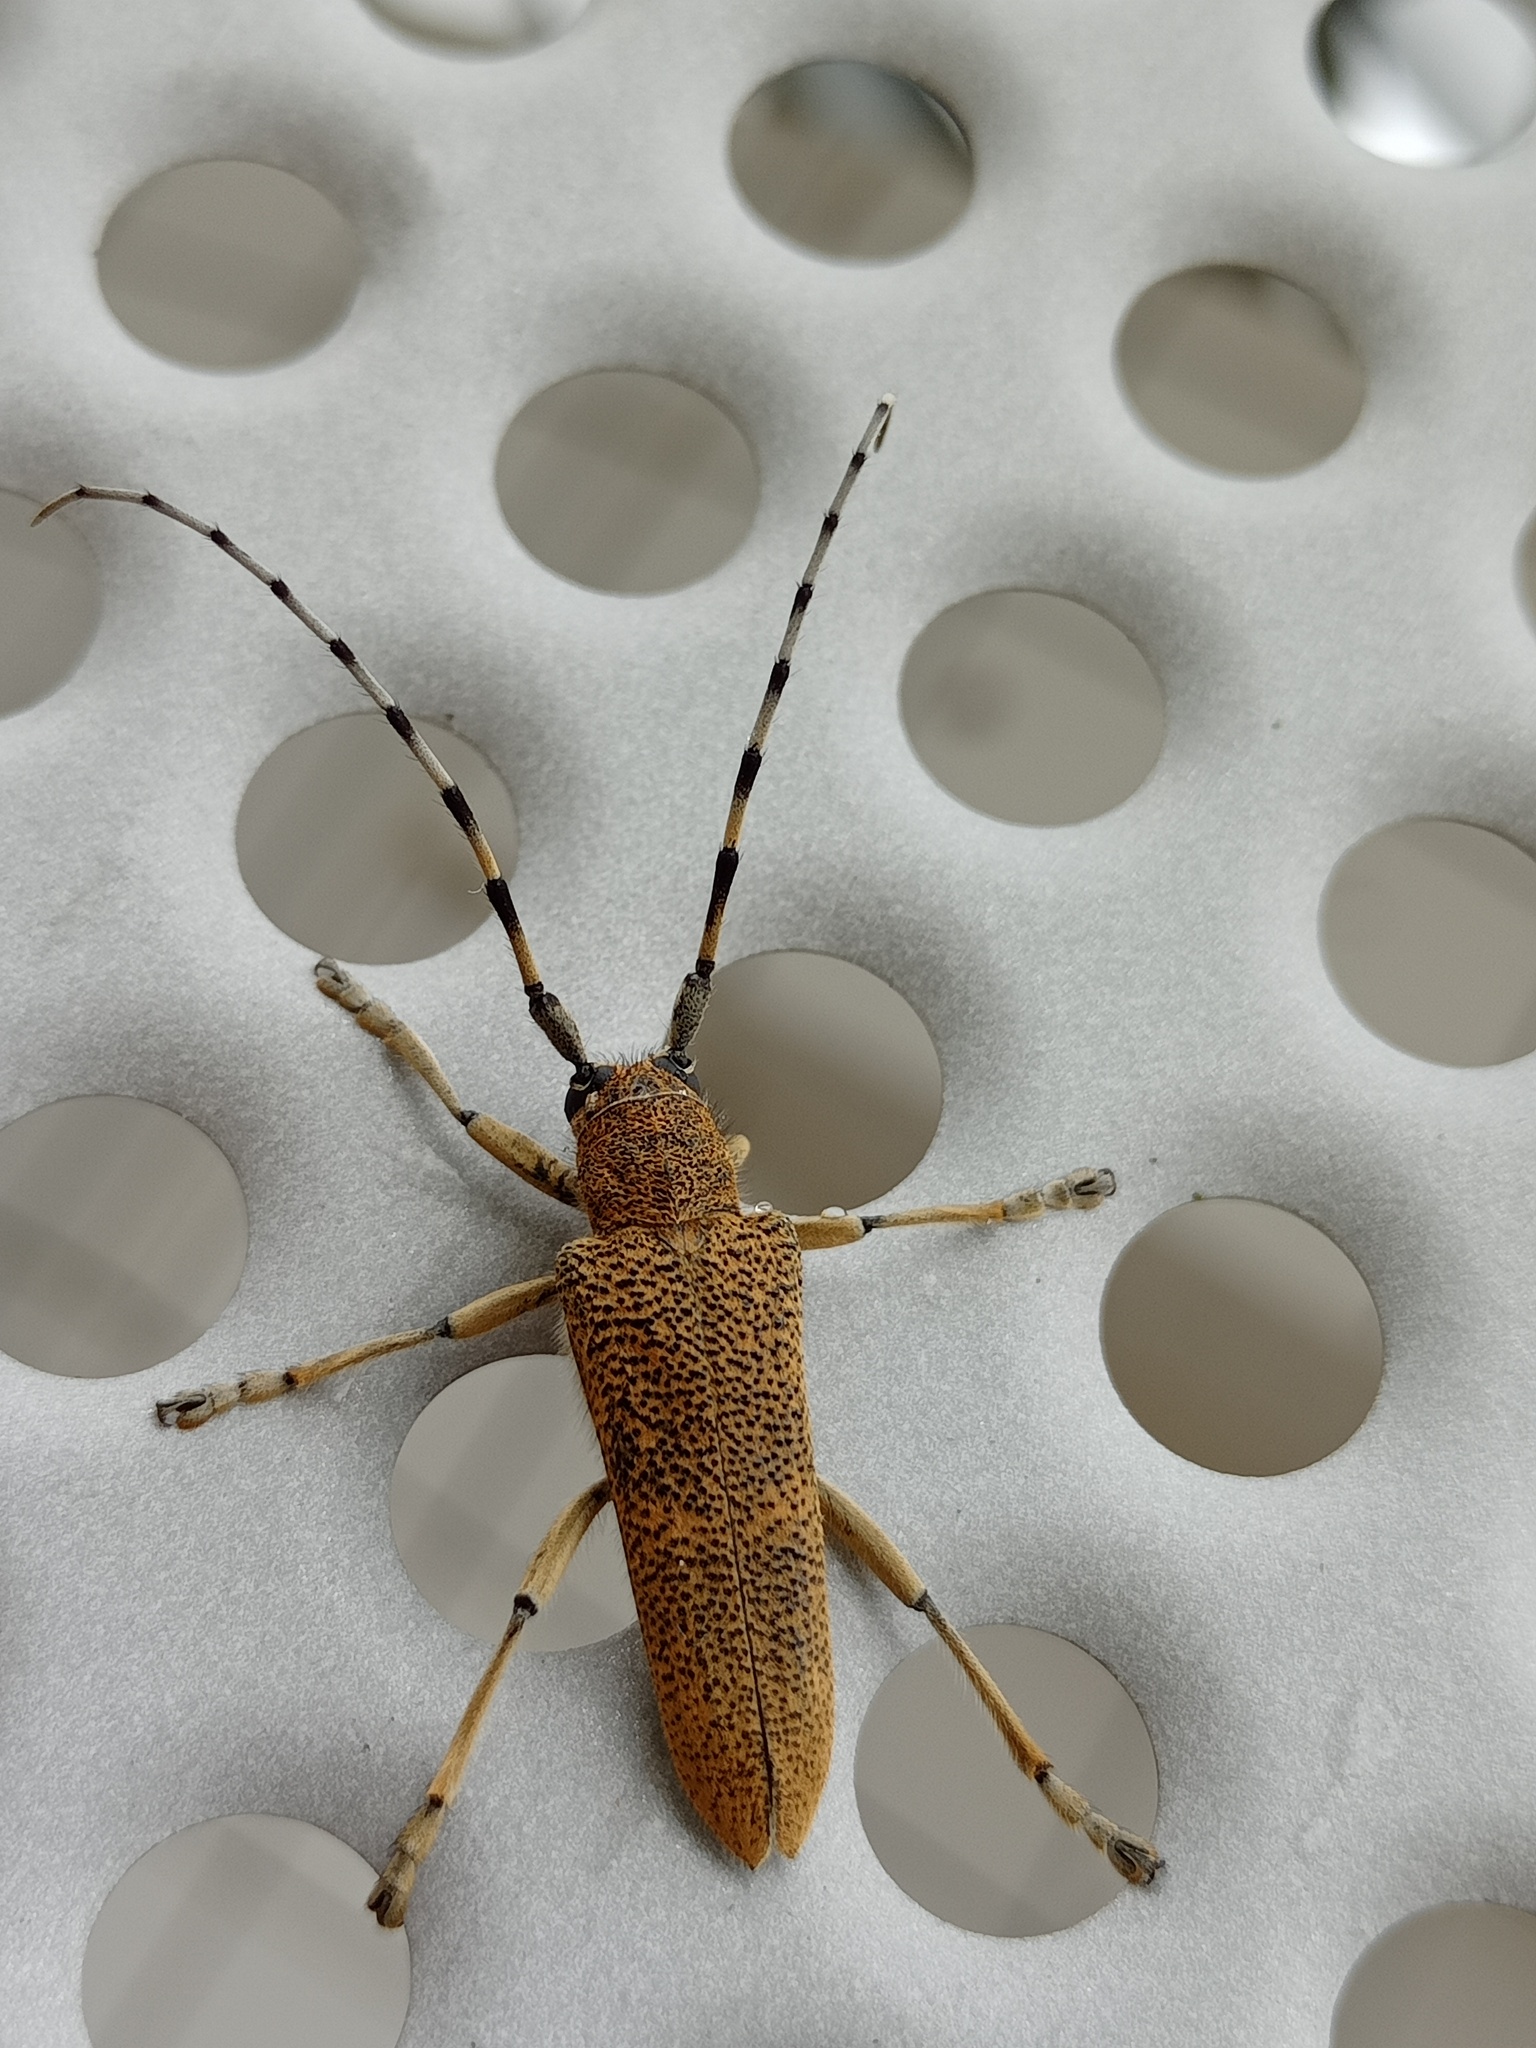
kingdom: Animalia
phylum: Arthropoda
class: Insecta
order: Coleoptera
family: Cerambycidae
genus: Saperda
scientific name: Saperda carcharias
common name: Poplar borer
